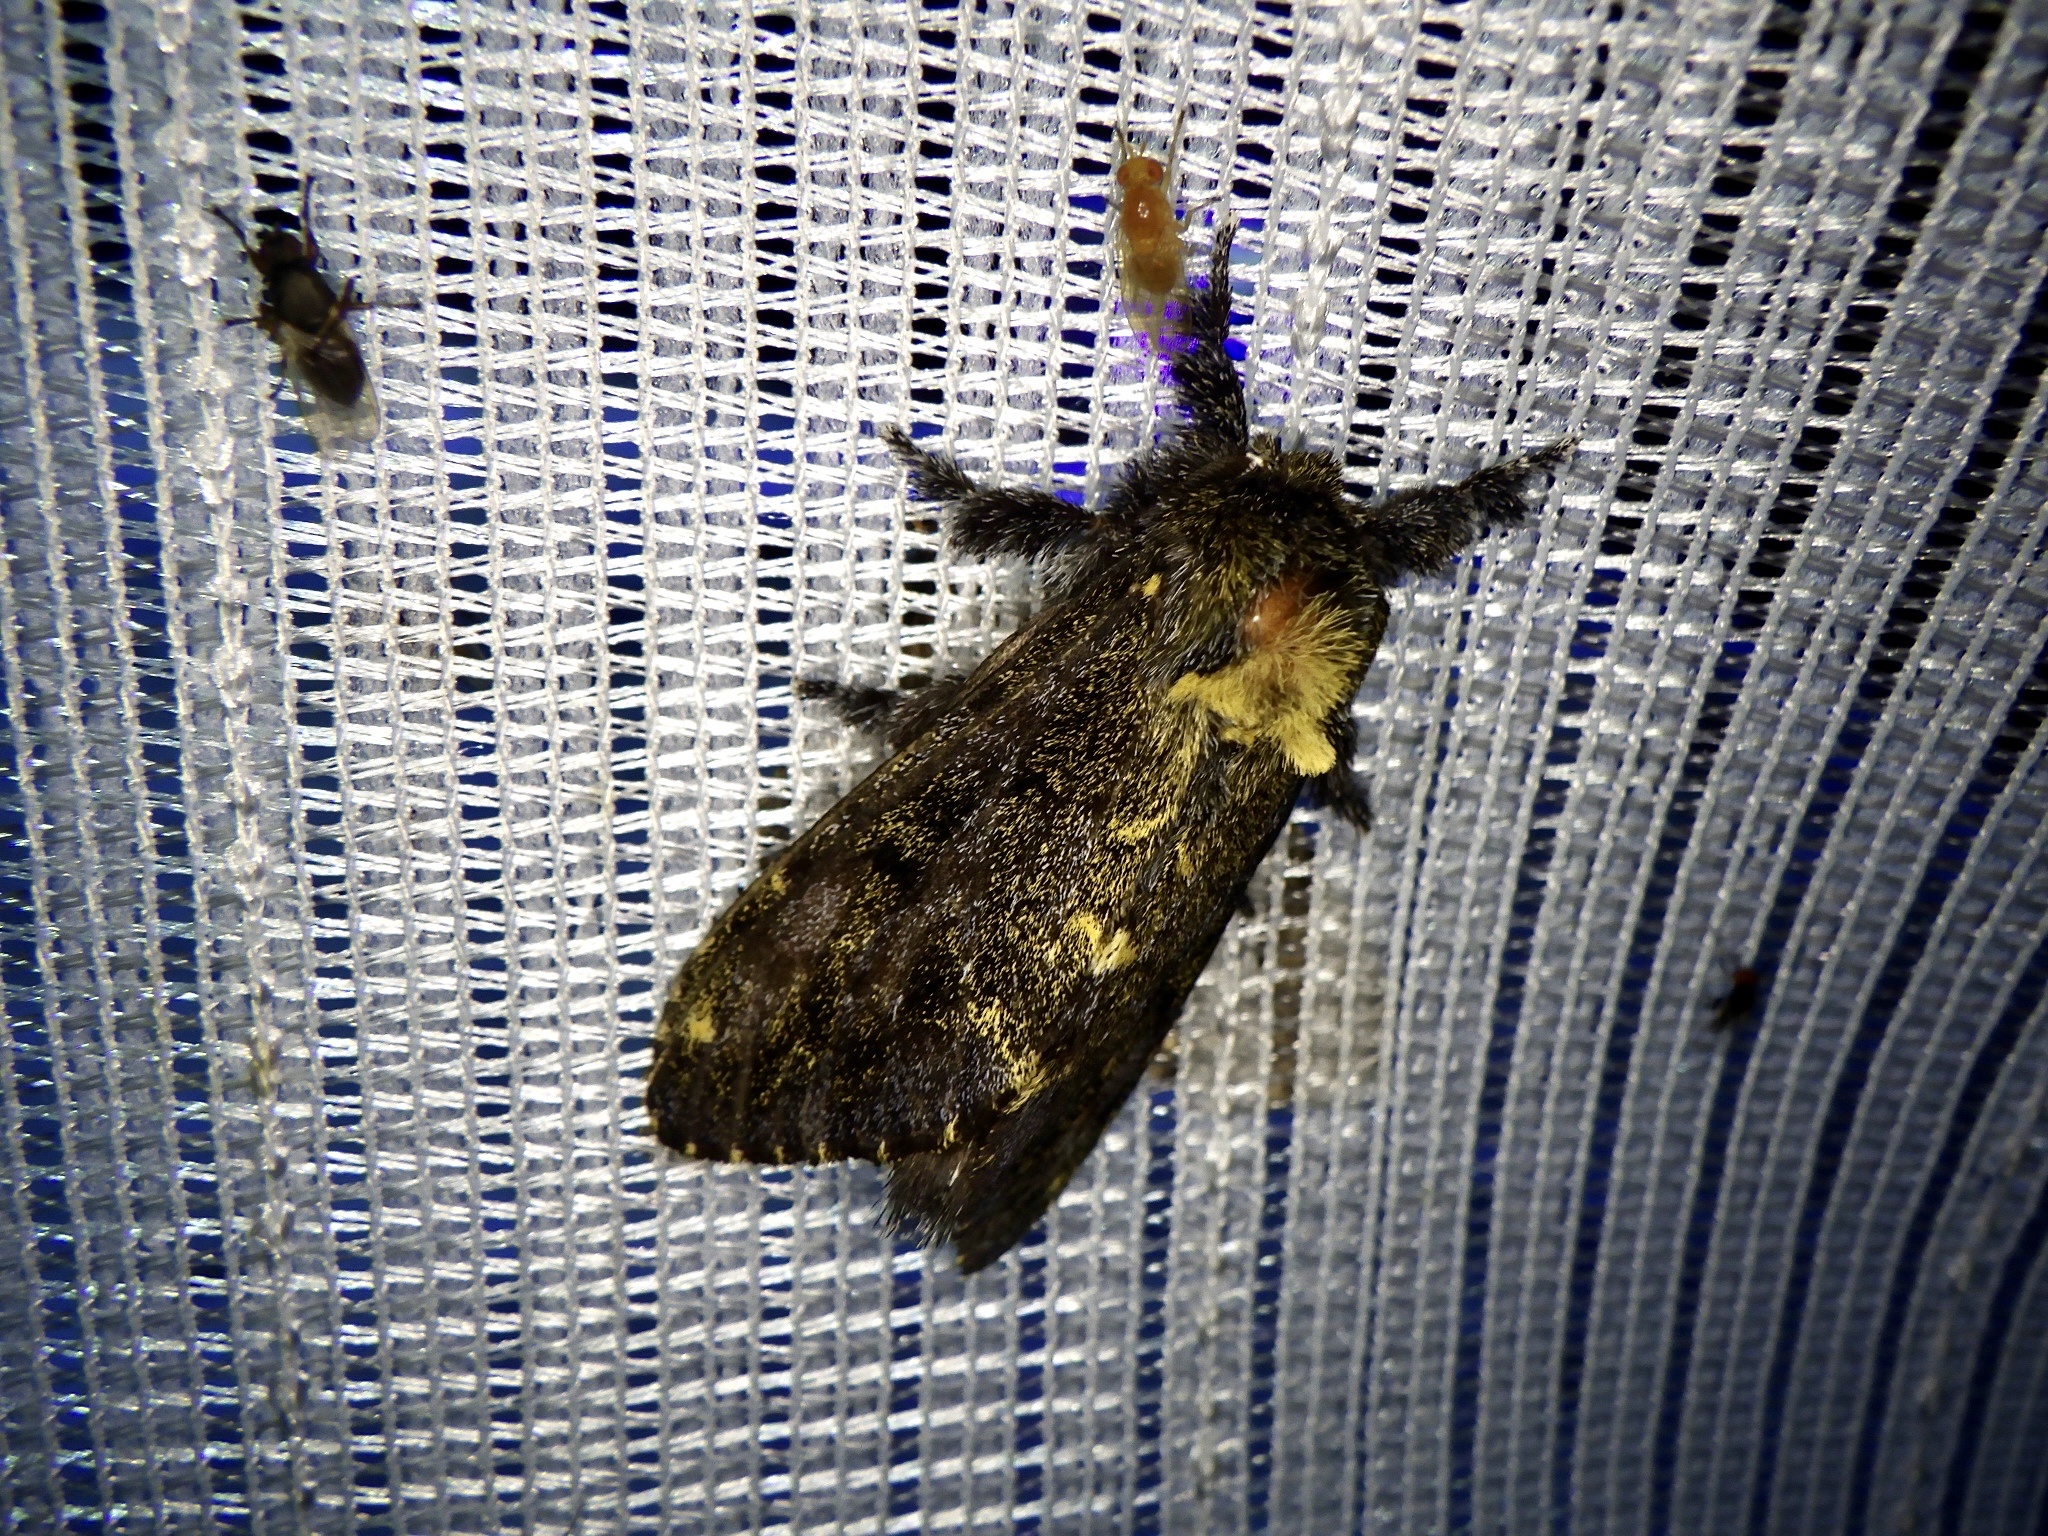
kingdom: Animalia
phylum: Arthropoda
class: Insecta
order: Lepidoptera
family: Notodontidae
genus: Zaranga
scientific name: Zaranga permagna
